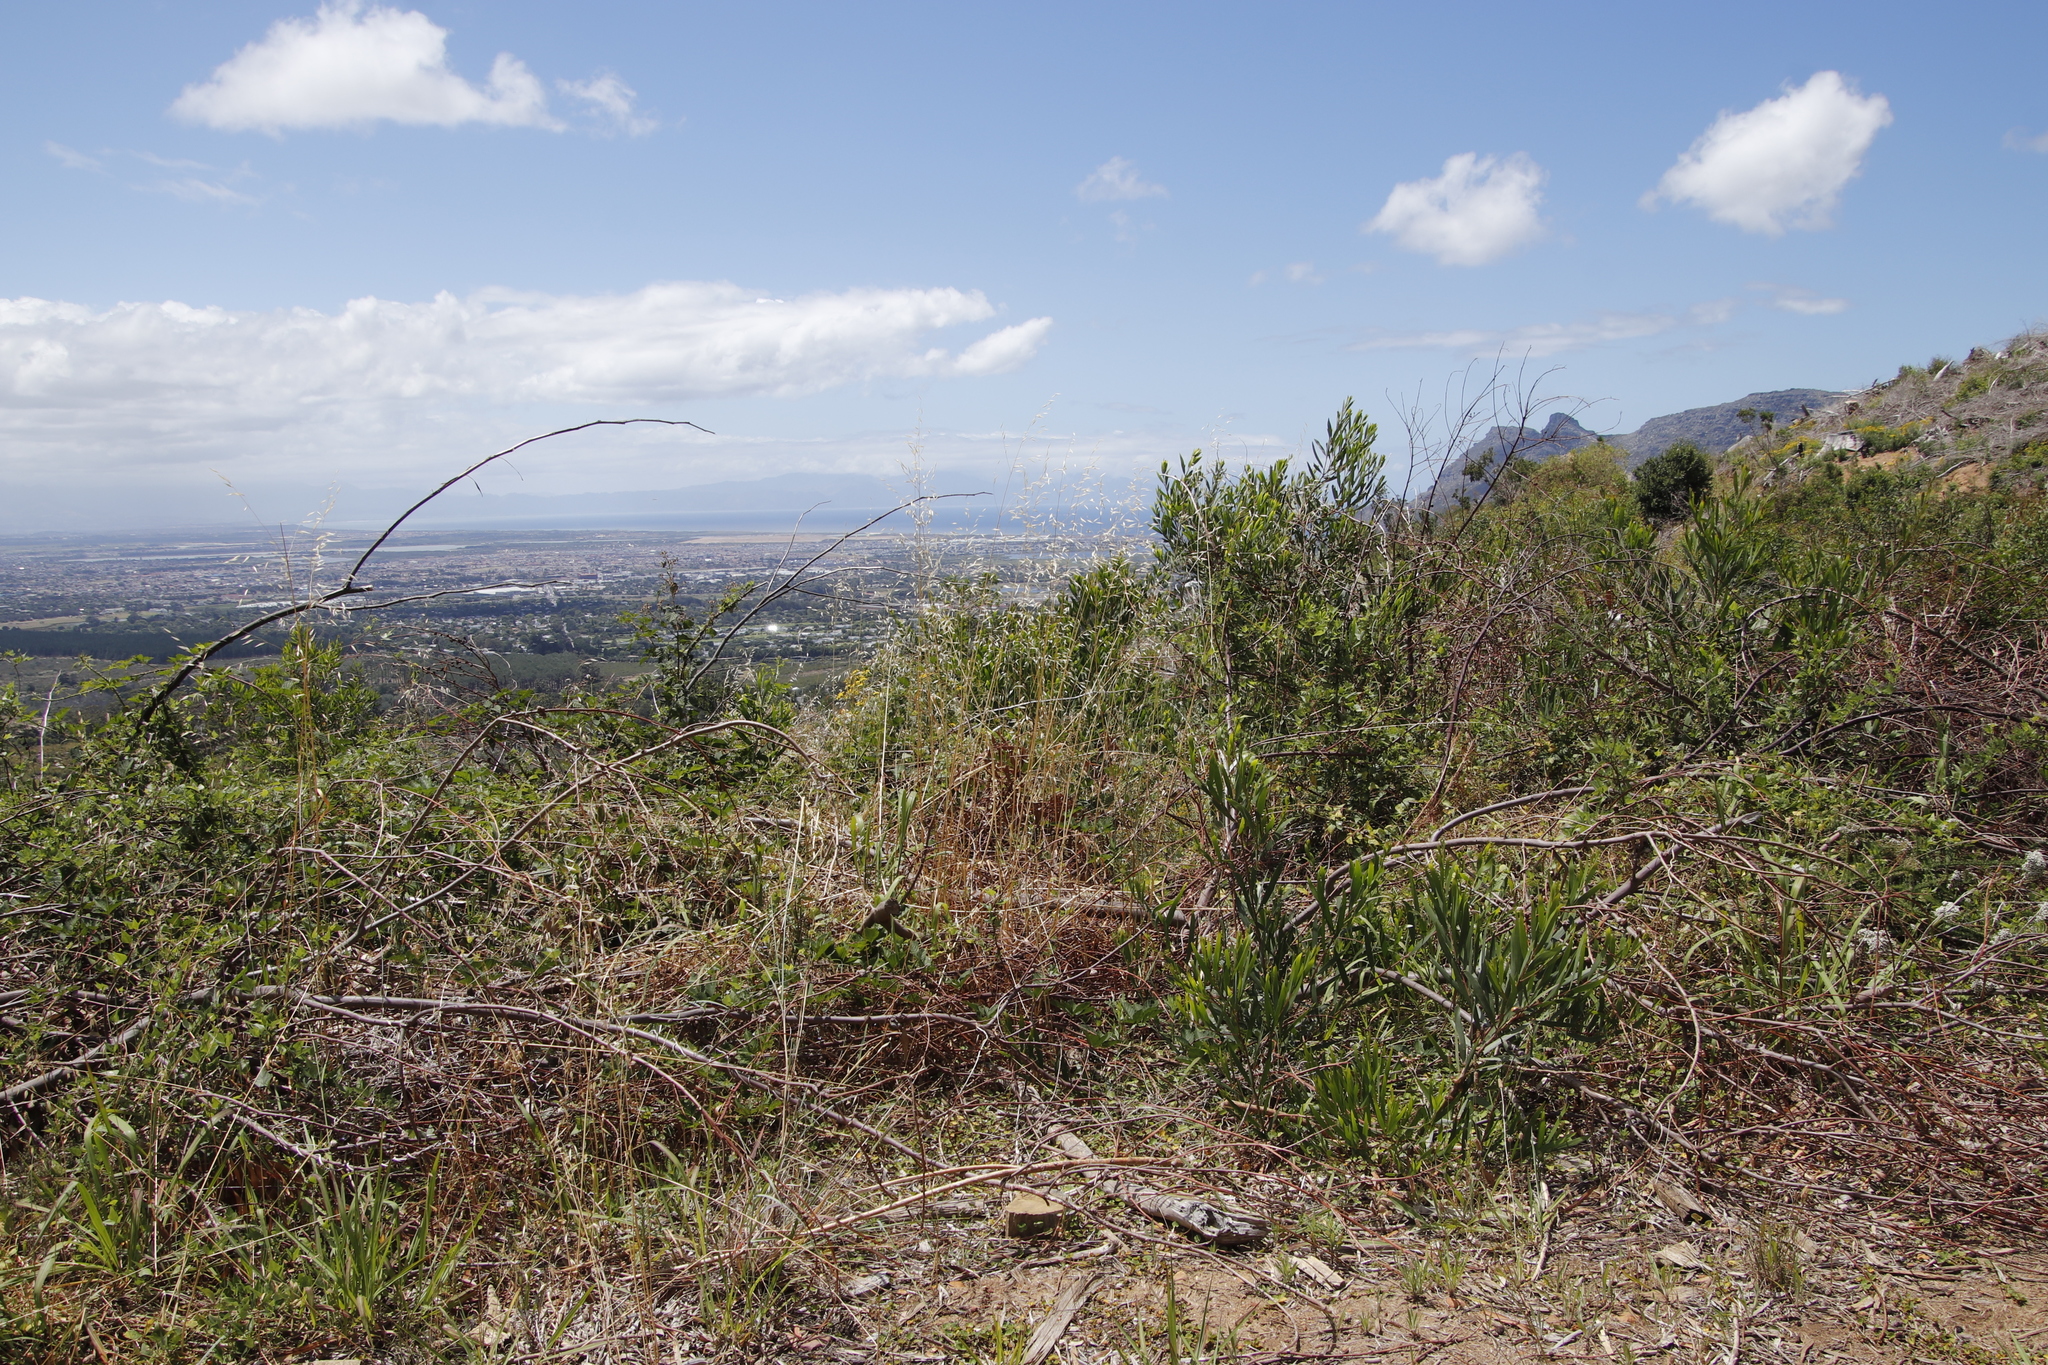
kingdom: Plantae
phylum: Tracheophyta
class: Magnoliopsida
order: Fabales
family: Fabaceae
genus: Acacia
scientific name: Acacia longifolia
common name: Sydney golden wattle
